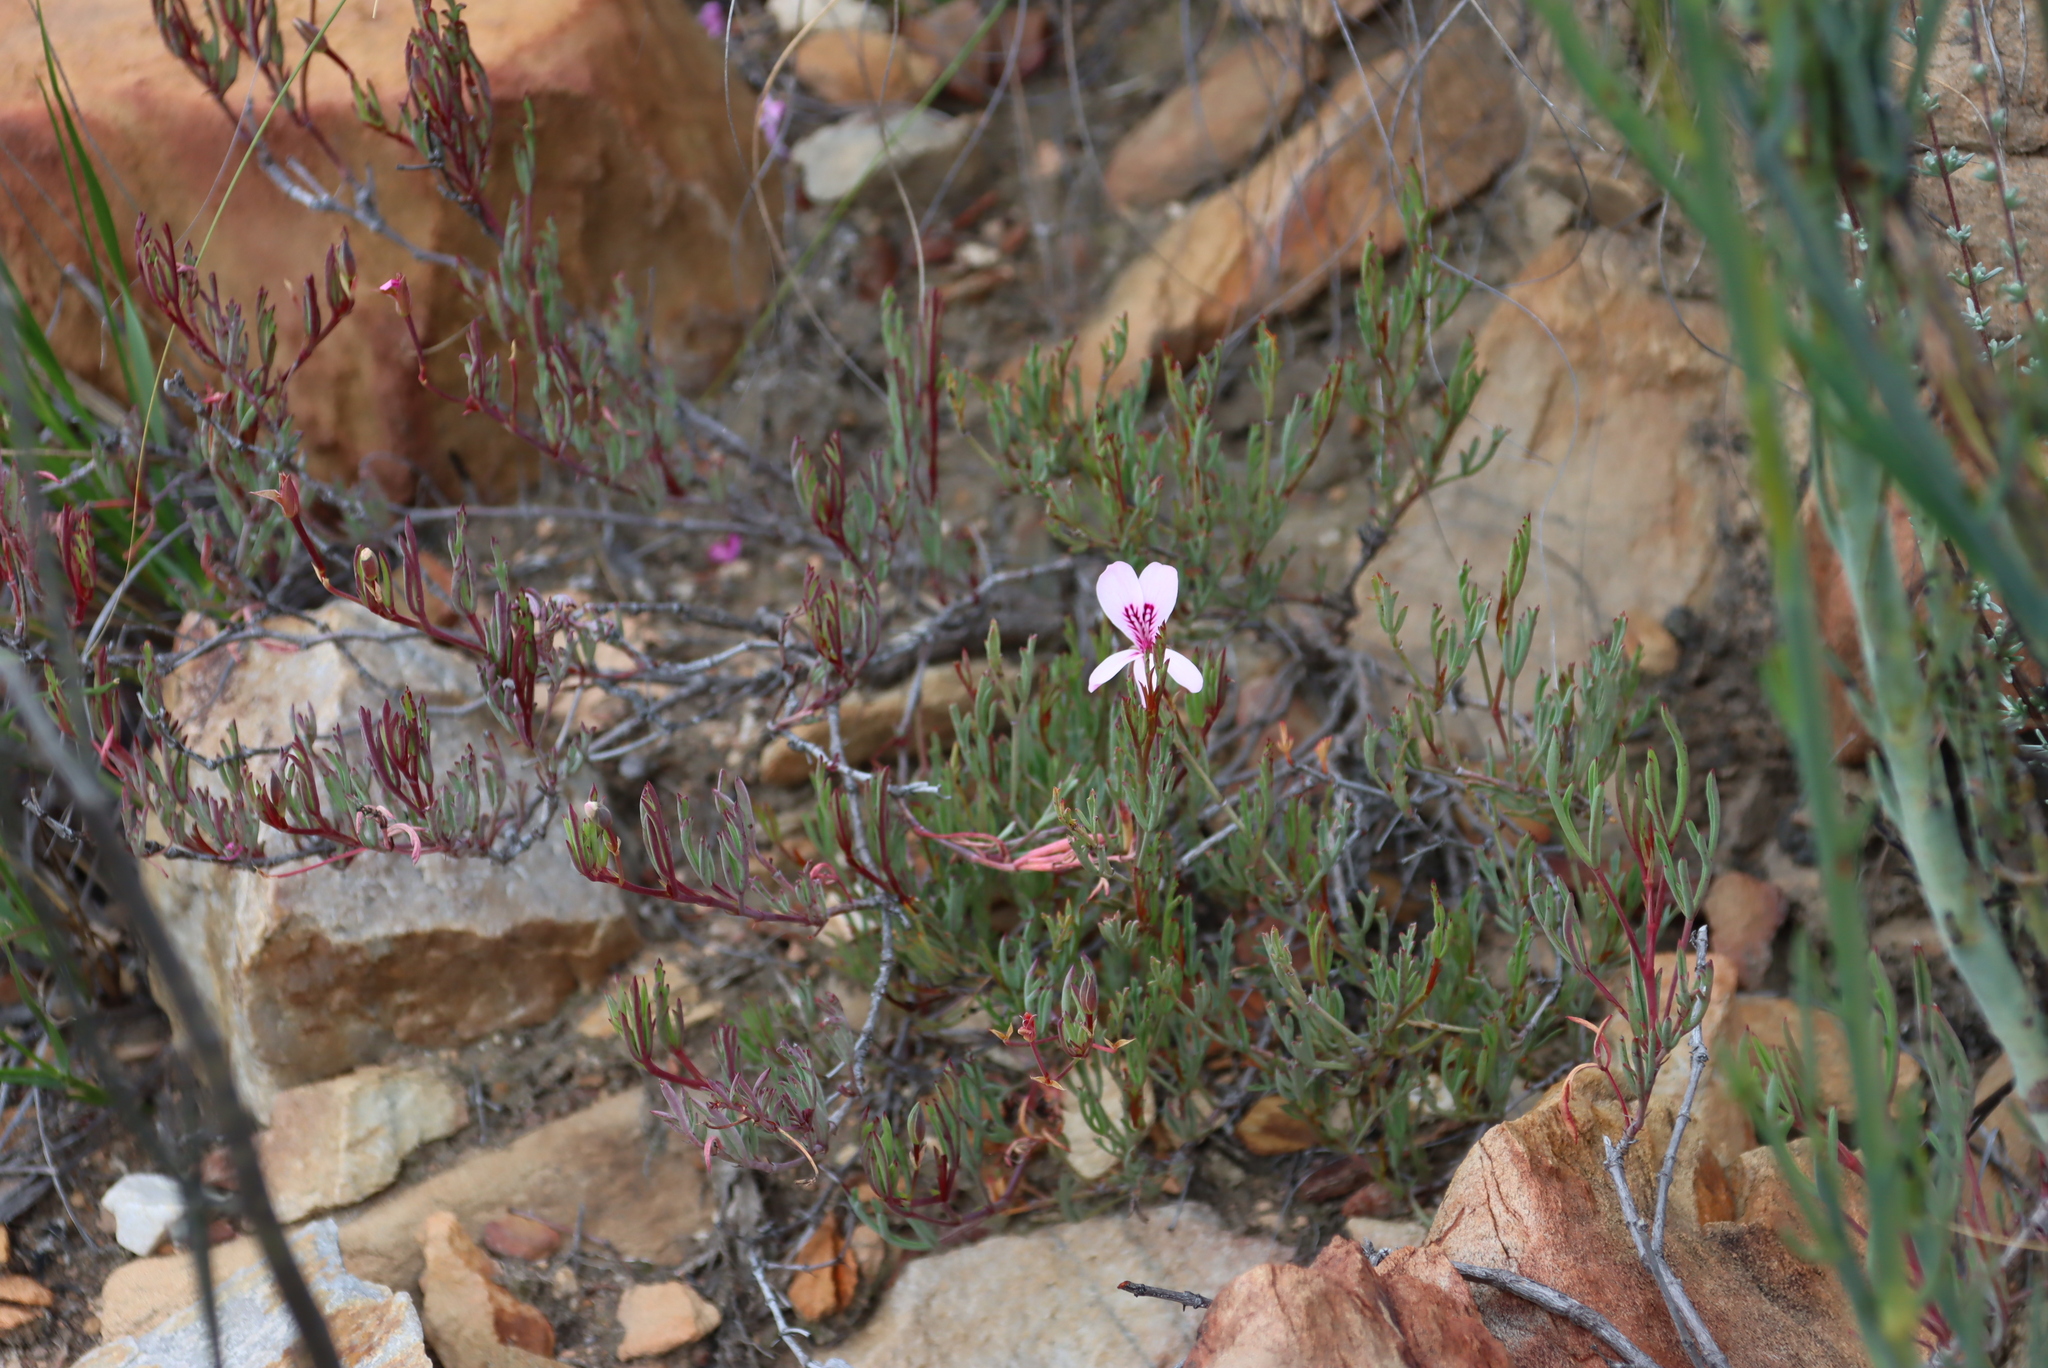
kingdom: Plantae
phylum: Tracheophyta
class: Magnoliopsida
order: Geraniales
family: Geraniaceae
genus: Pelargonium
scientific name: Pelargonium laevigatum
